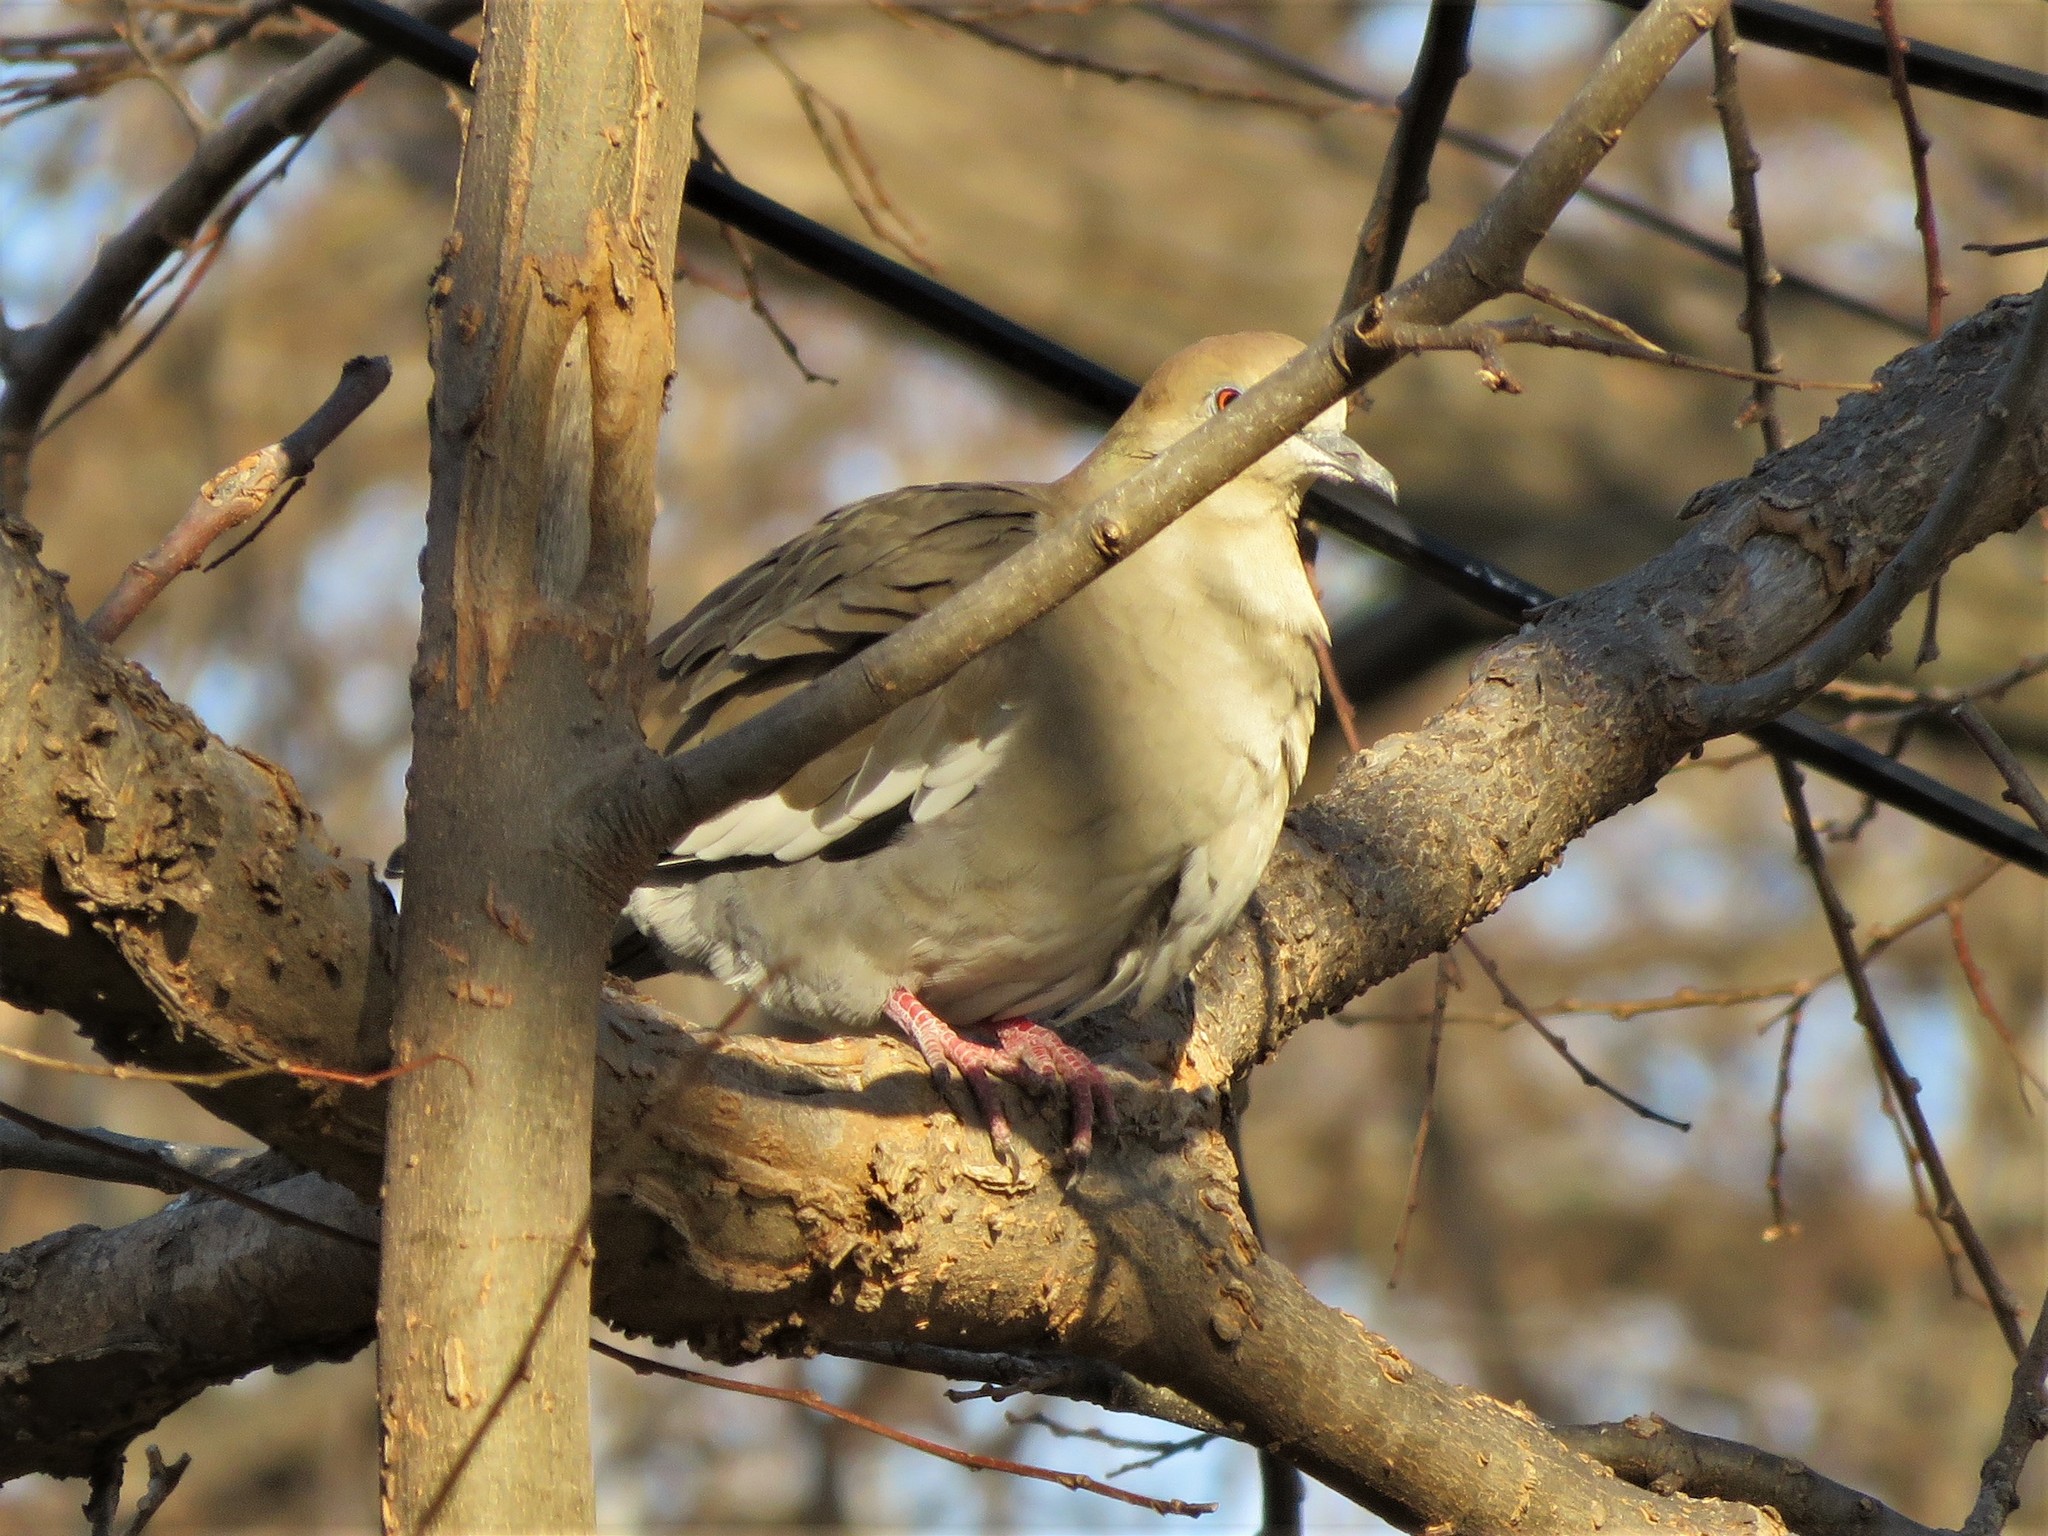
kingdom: Animalia
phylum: Chordata
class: Aves
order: Columbiformes
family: Columbidae
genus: Zenaida
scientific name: Zenaida asiatica
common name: White-winged dove
